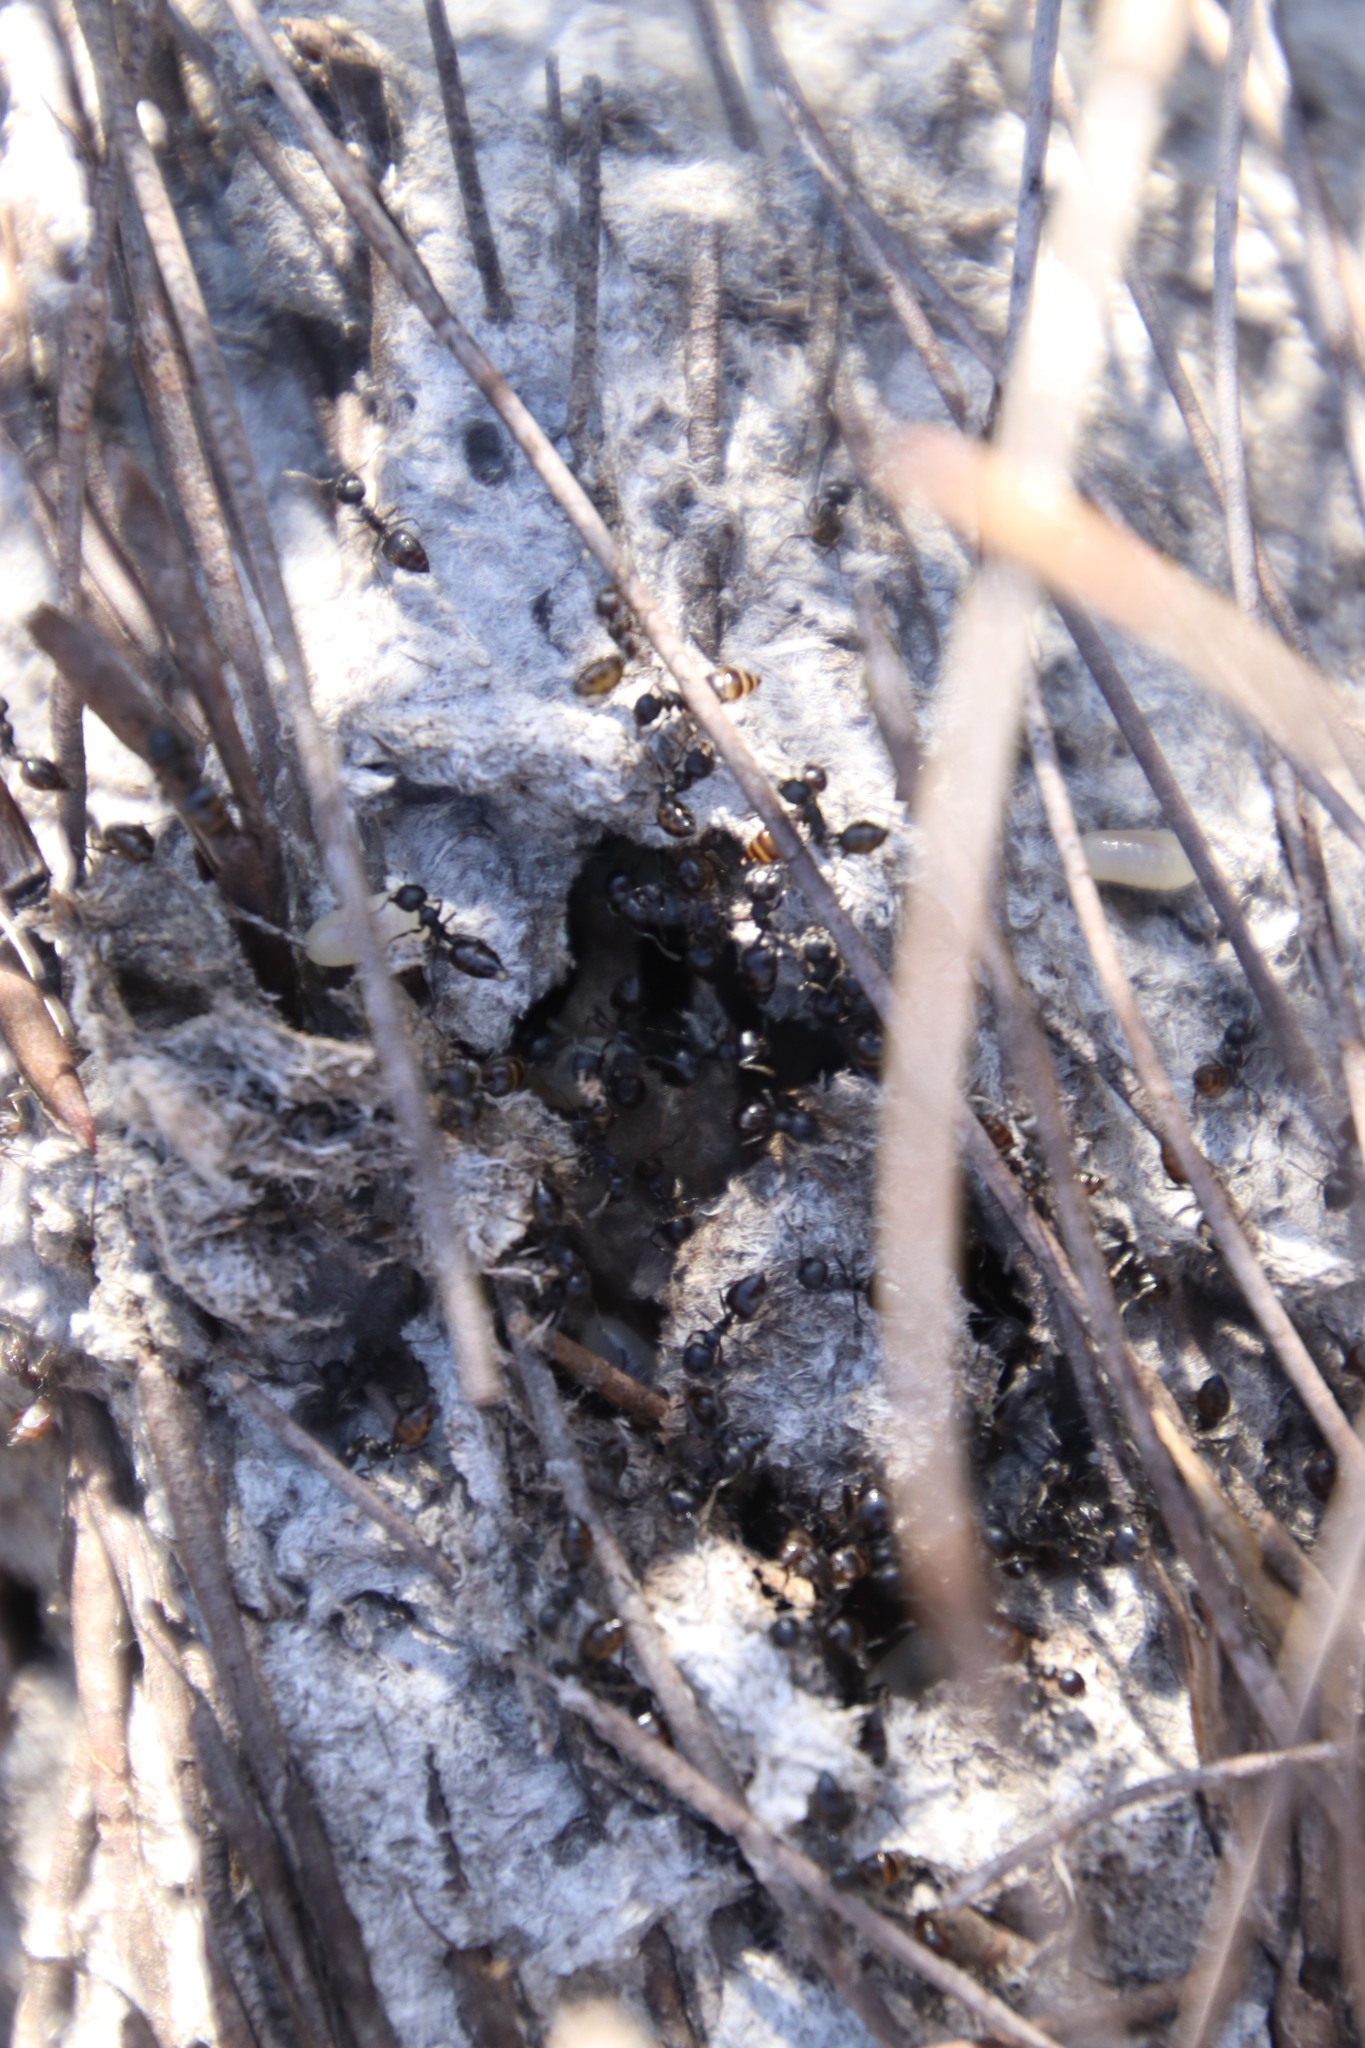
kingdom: Animalia
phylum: Arthropoda
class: Insecta
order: Hymenoptera
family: Formicidae
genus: Crematogaster
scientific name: Crematogaster peringueyi
